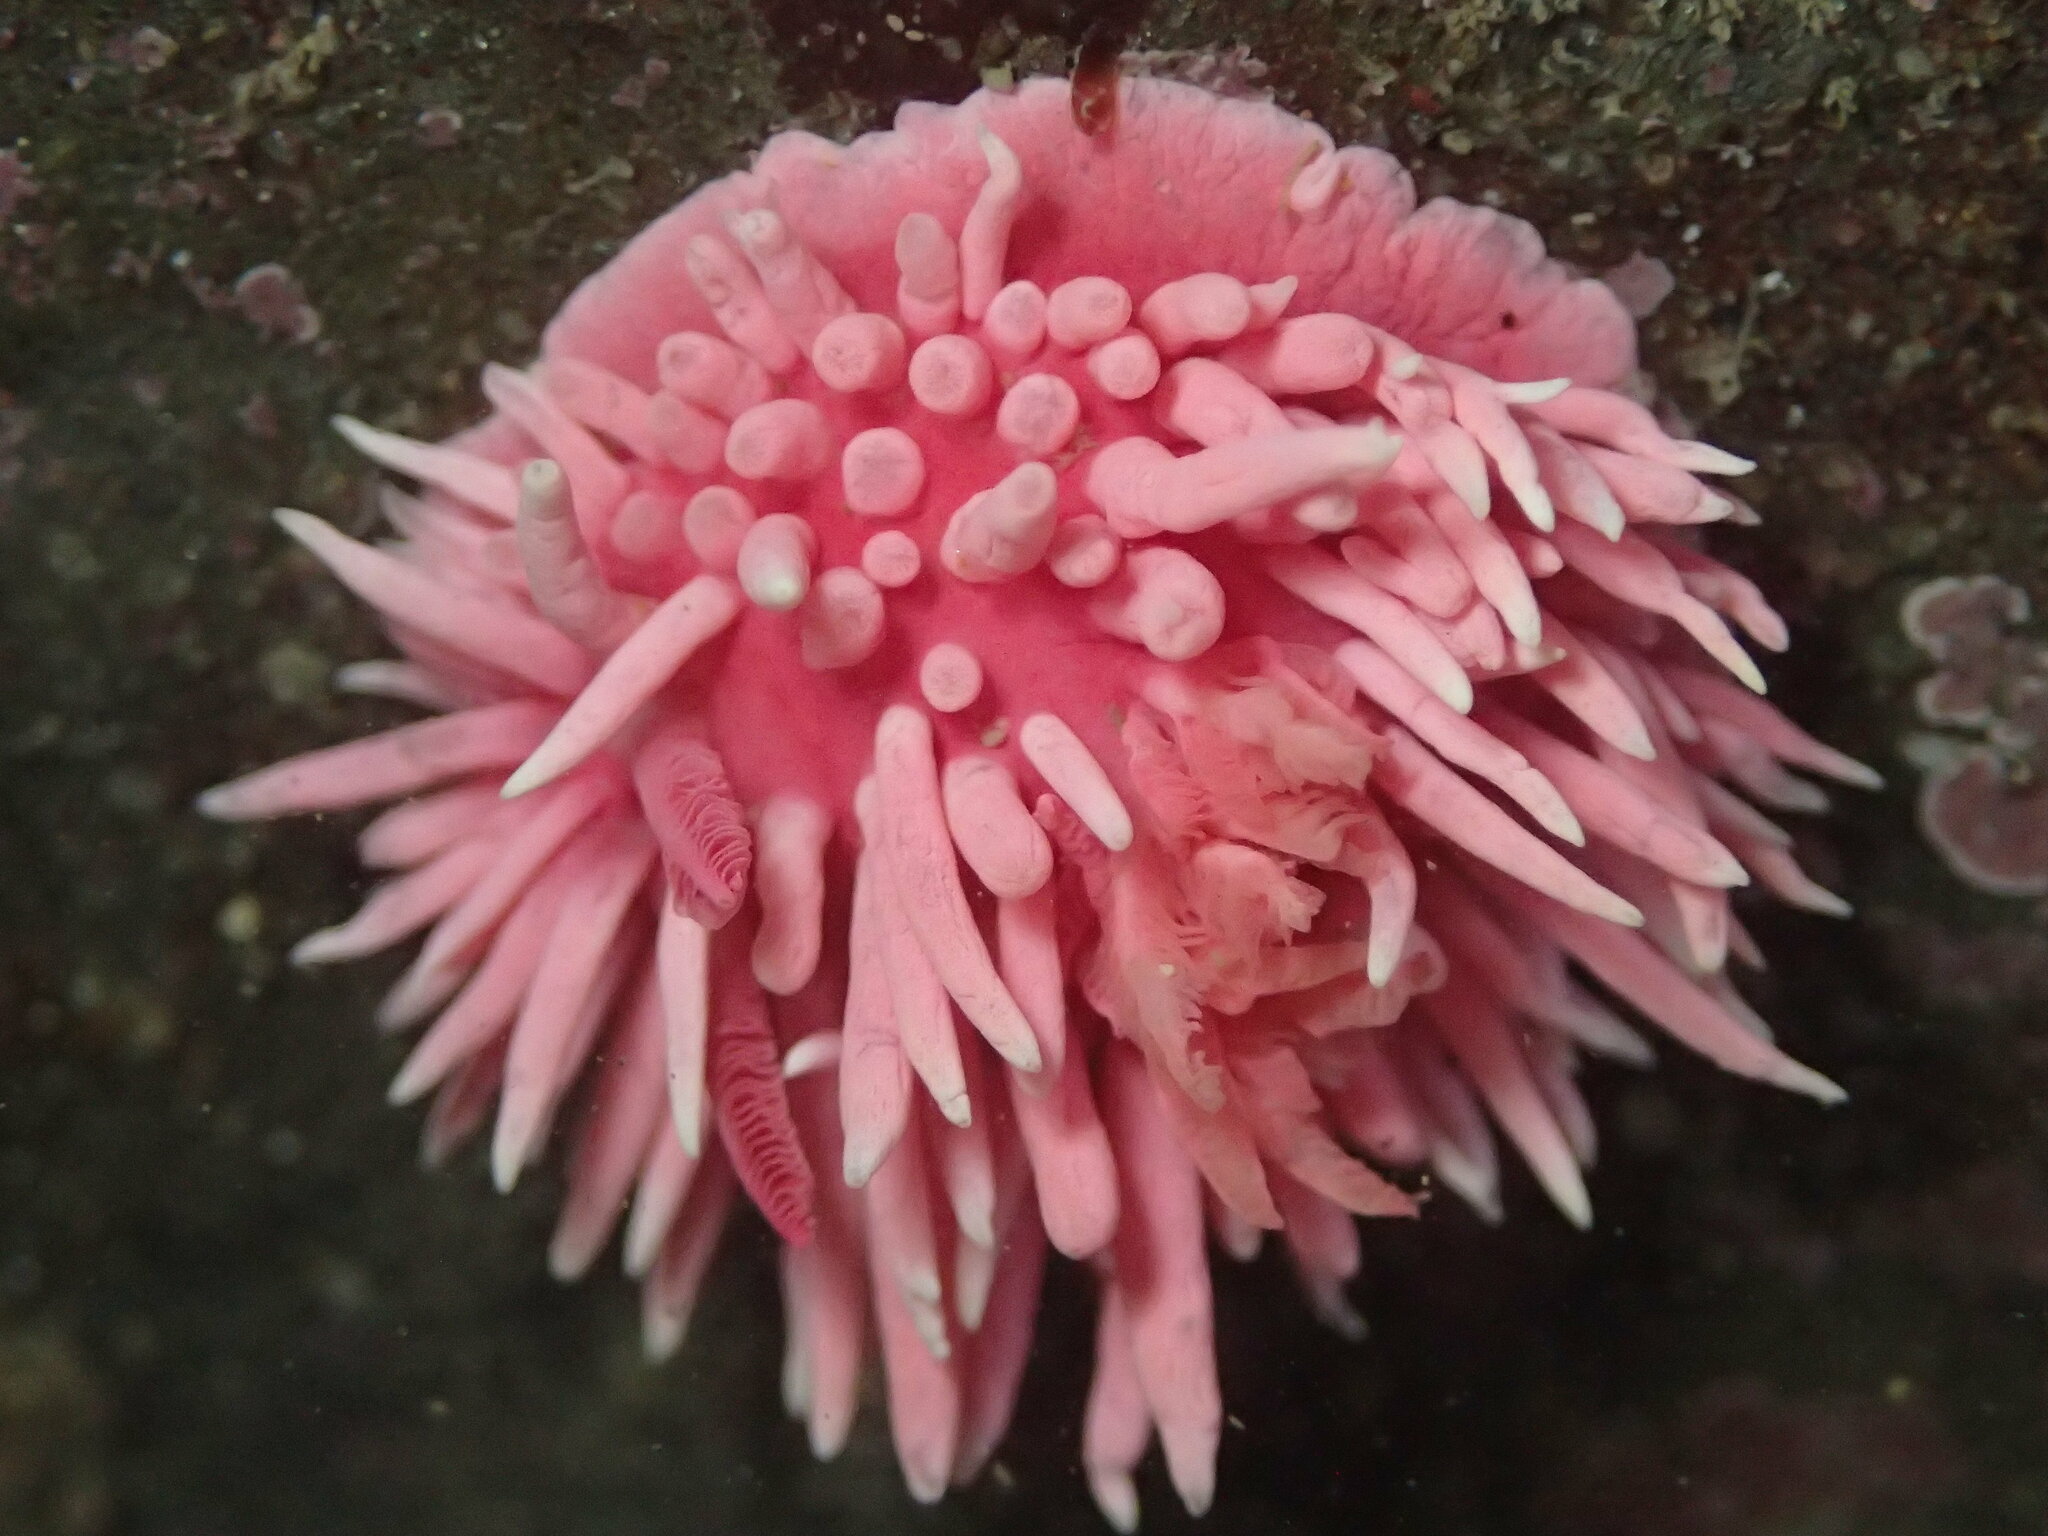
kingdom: Animalia
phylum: Mollusca
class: Gastropoda
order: Nudibranchia
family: Goniodorididae
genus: Okenia
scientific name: Okenia
